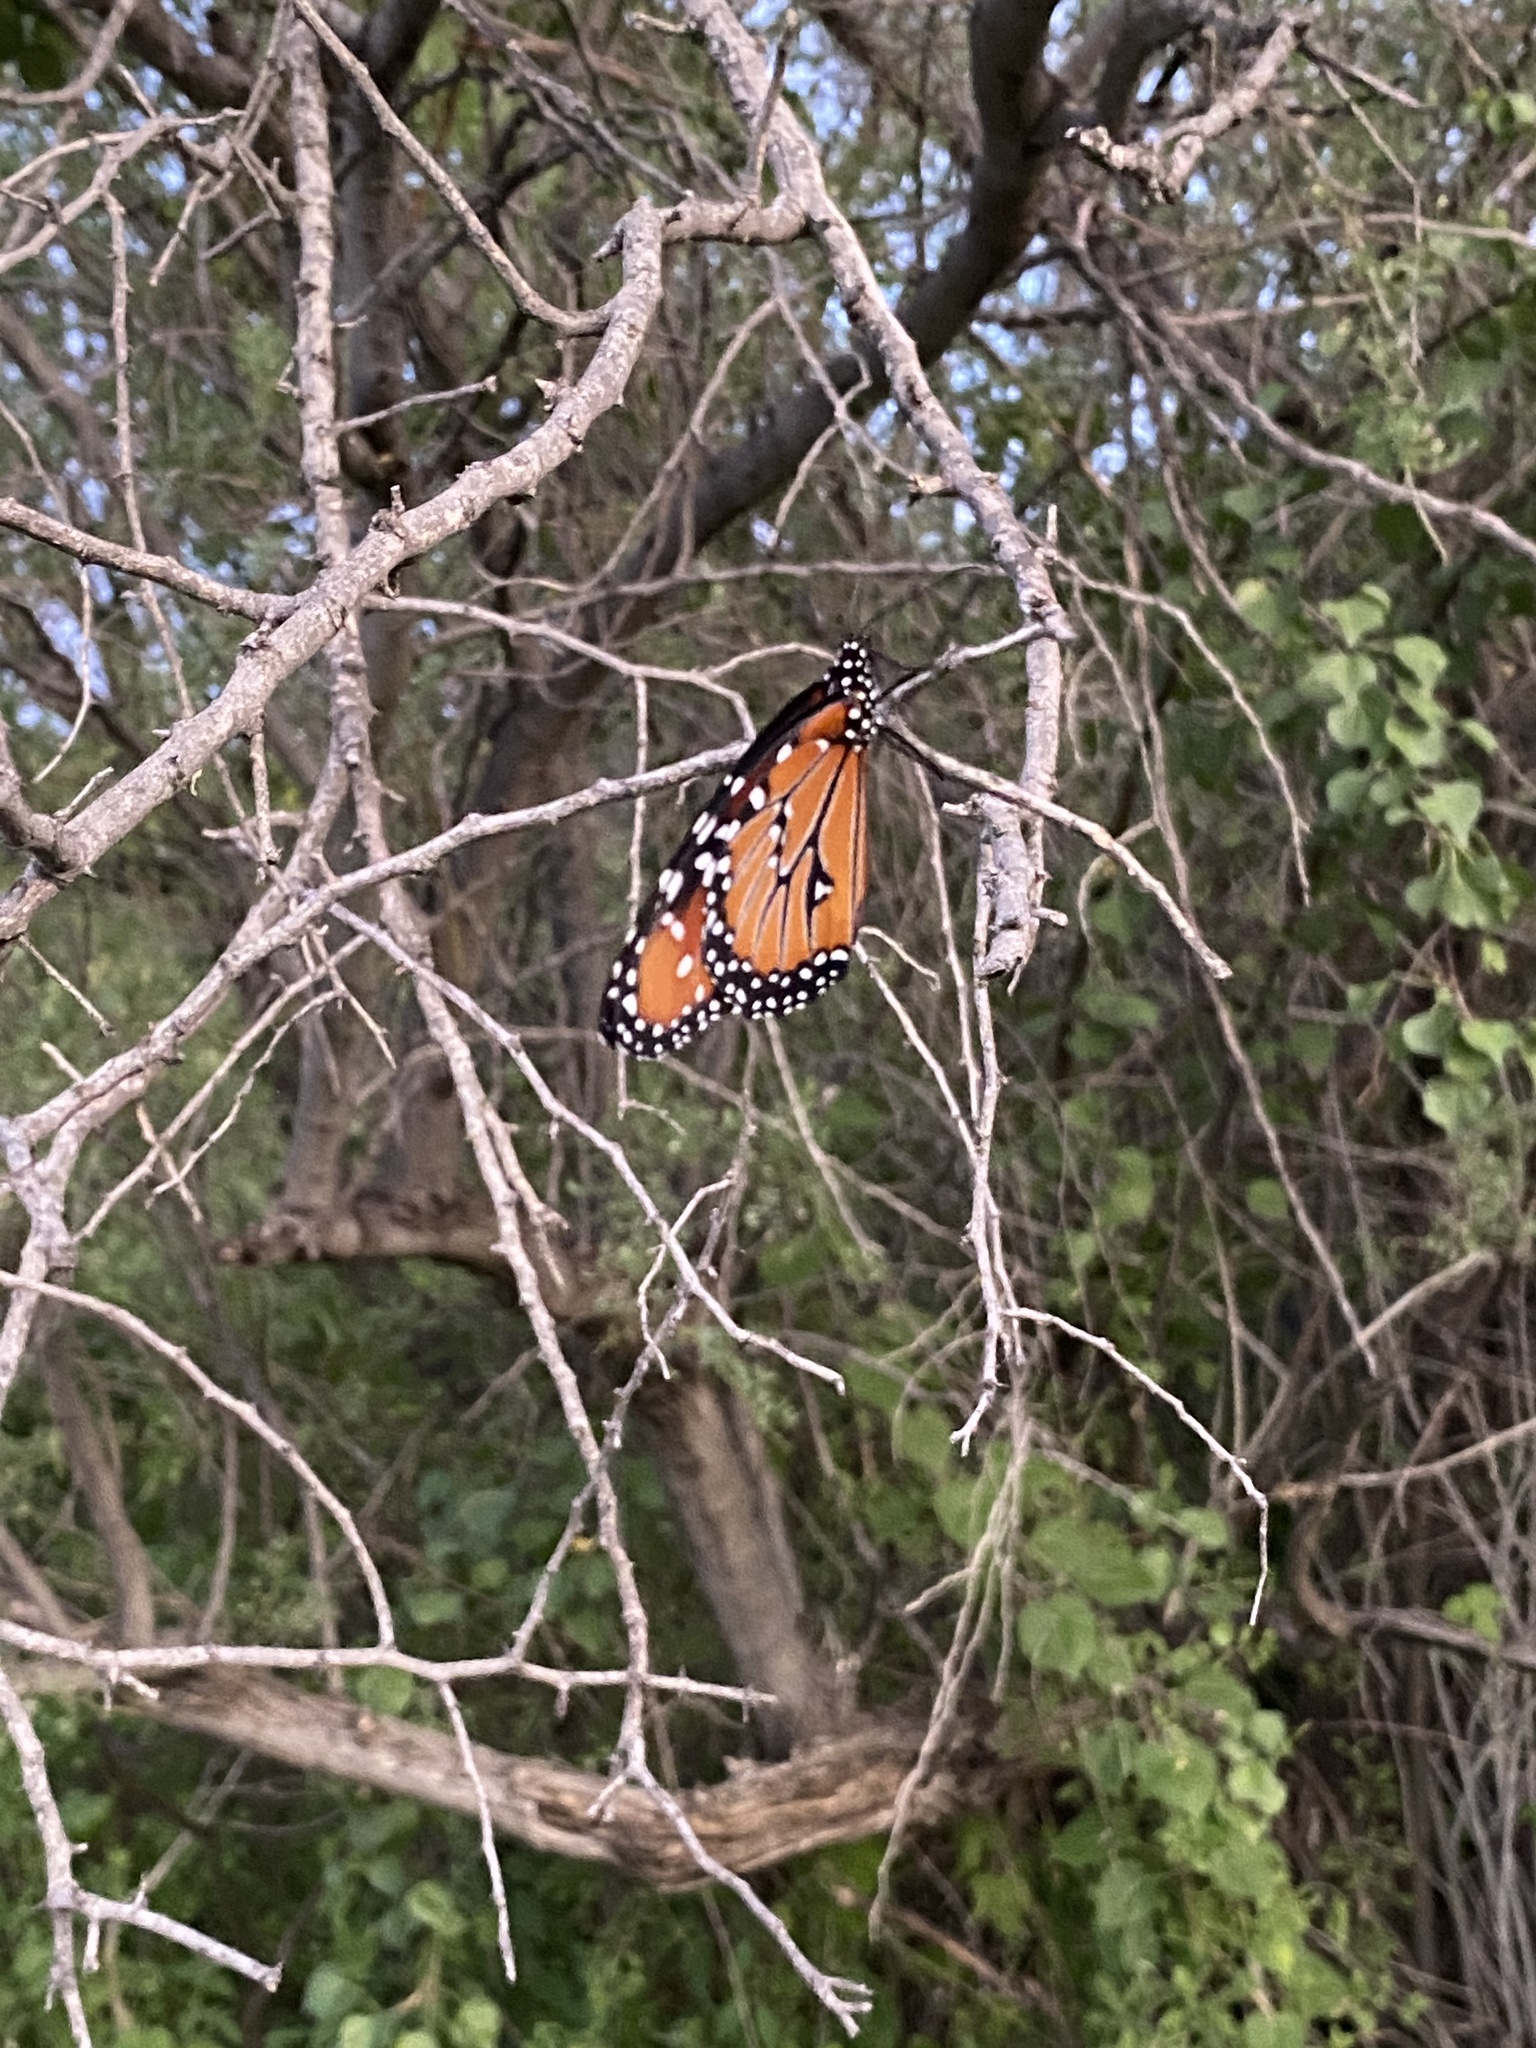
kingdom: Animalia
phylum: Arthropoda
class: Insecta
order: Lepidoptera
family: Nymphalidae
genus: Danaus
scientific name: Danaus gilippus
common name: Queen
